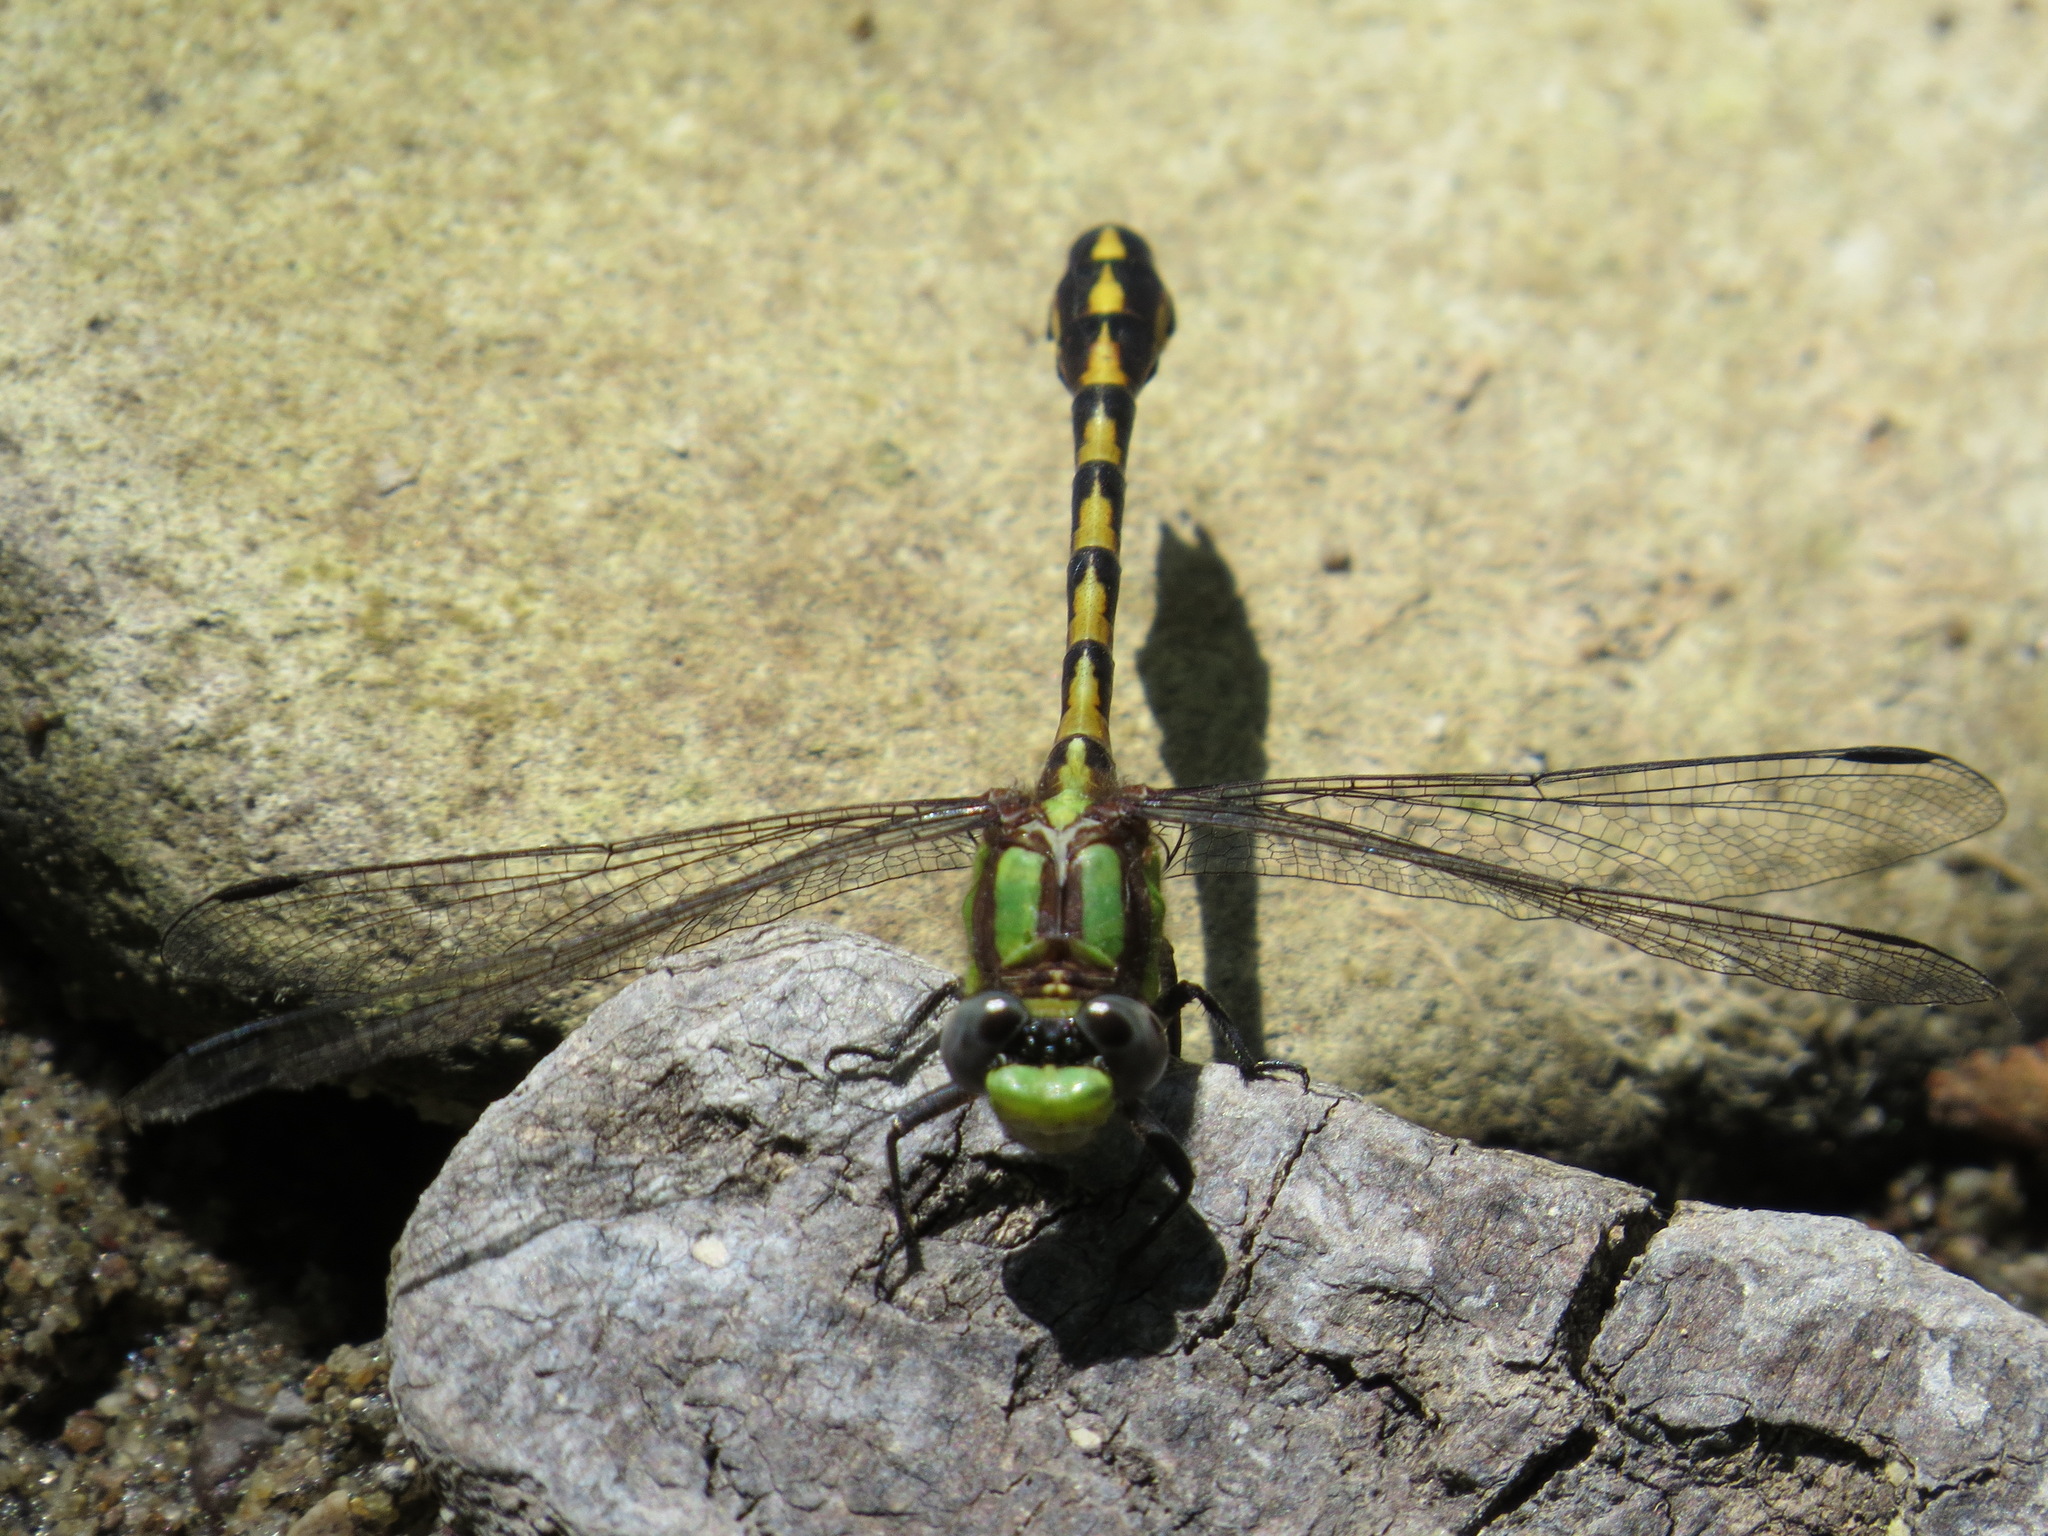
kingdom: Animalia
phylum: Arthropoda
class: Insecta
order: Odonata
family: Gomphidae
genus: Ophiogomphus
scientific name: Ophiogomphus bison
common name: Bison snaketail
